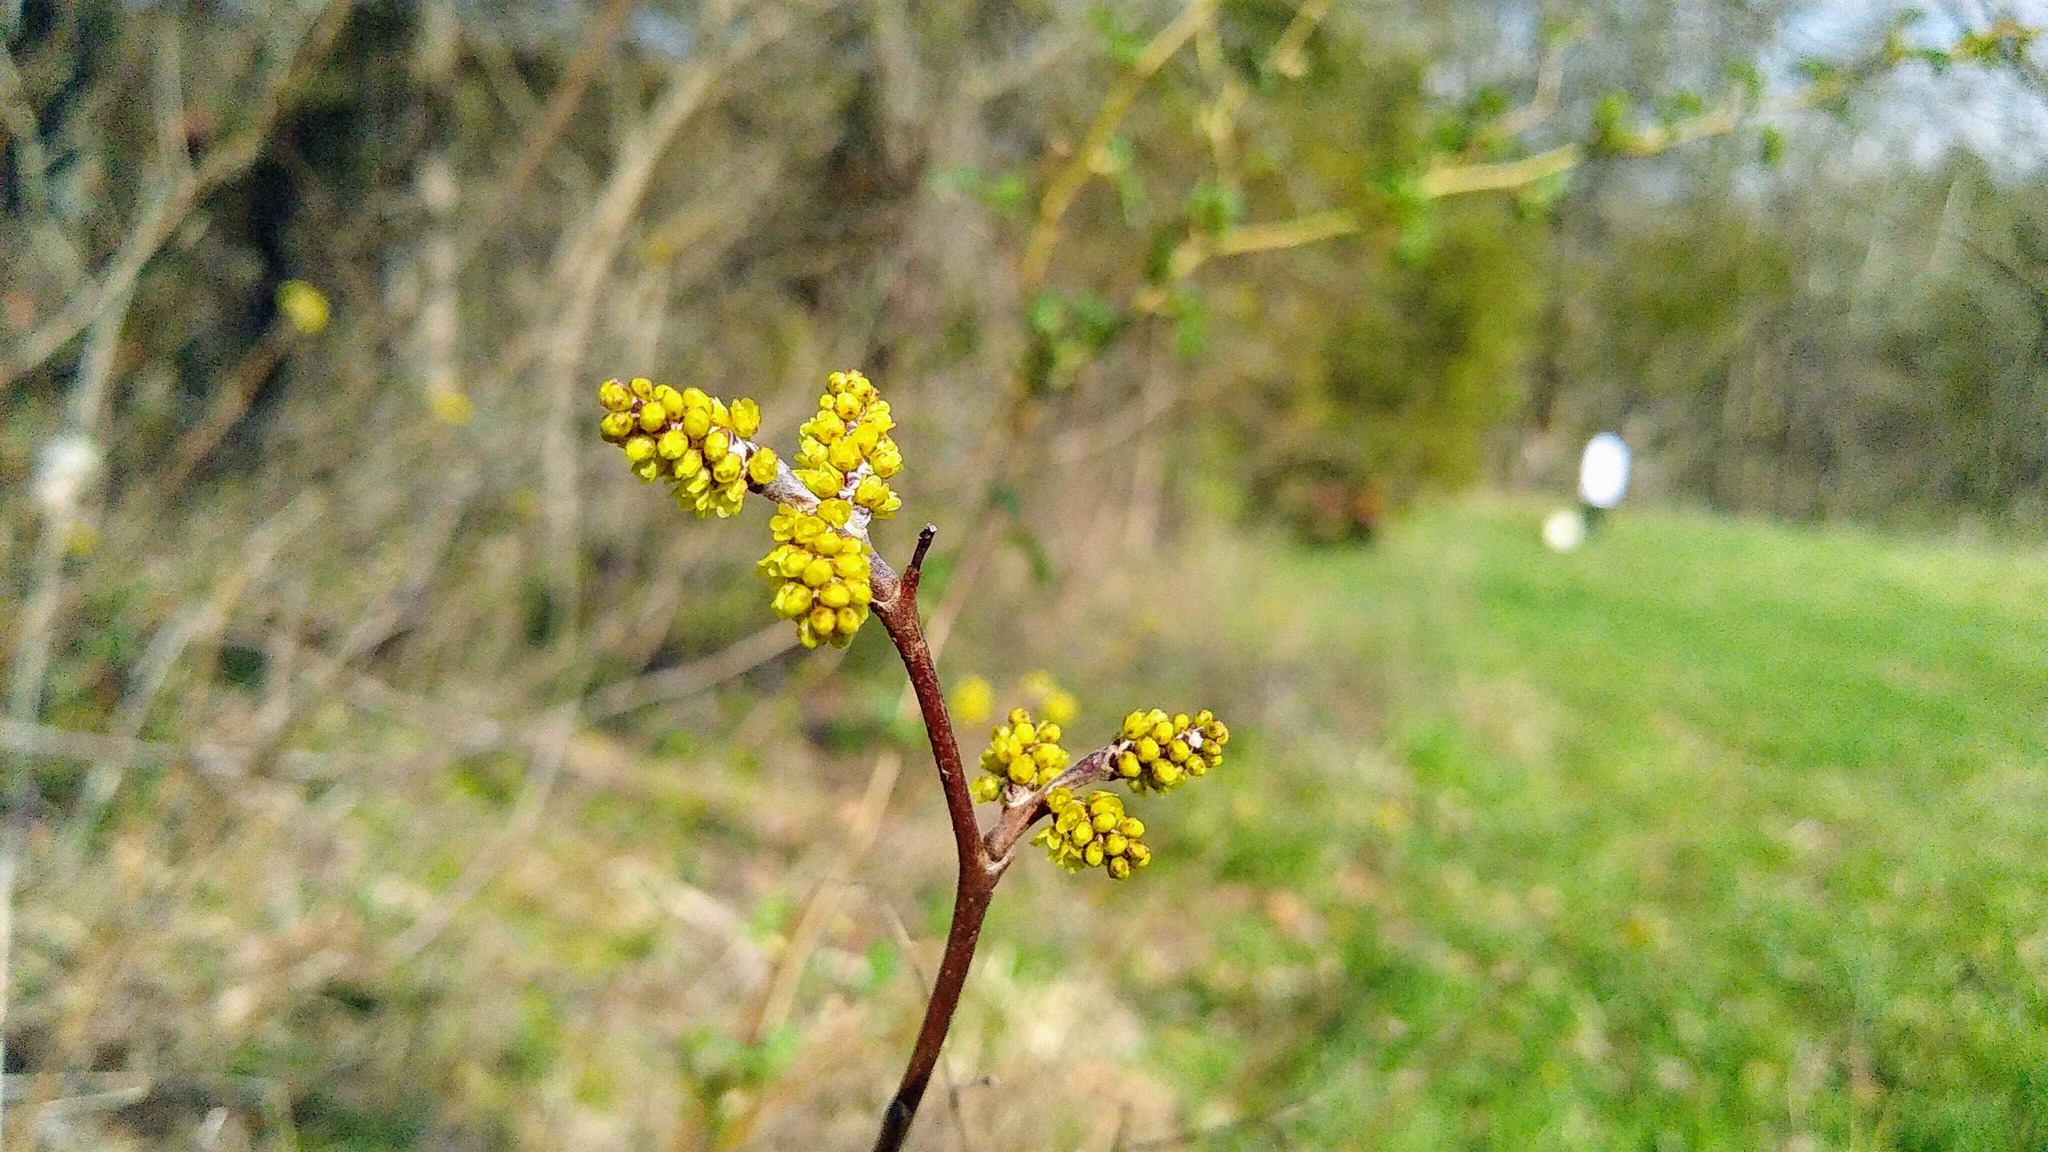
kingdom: Plantae
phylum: Tracheophyta
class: Magnoliopsida
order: Sapindales
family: Anacardiaceae
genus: Rhus
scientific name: Rhus aromatica
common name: Aromatic sumac
